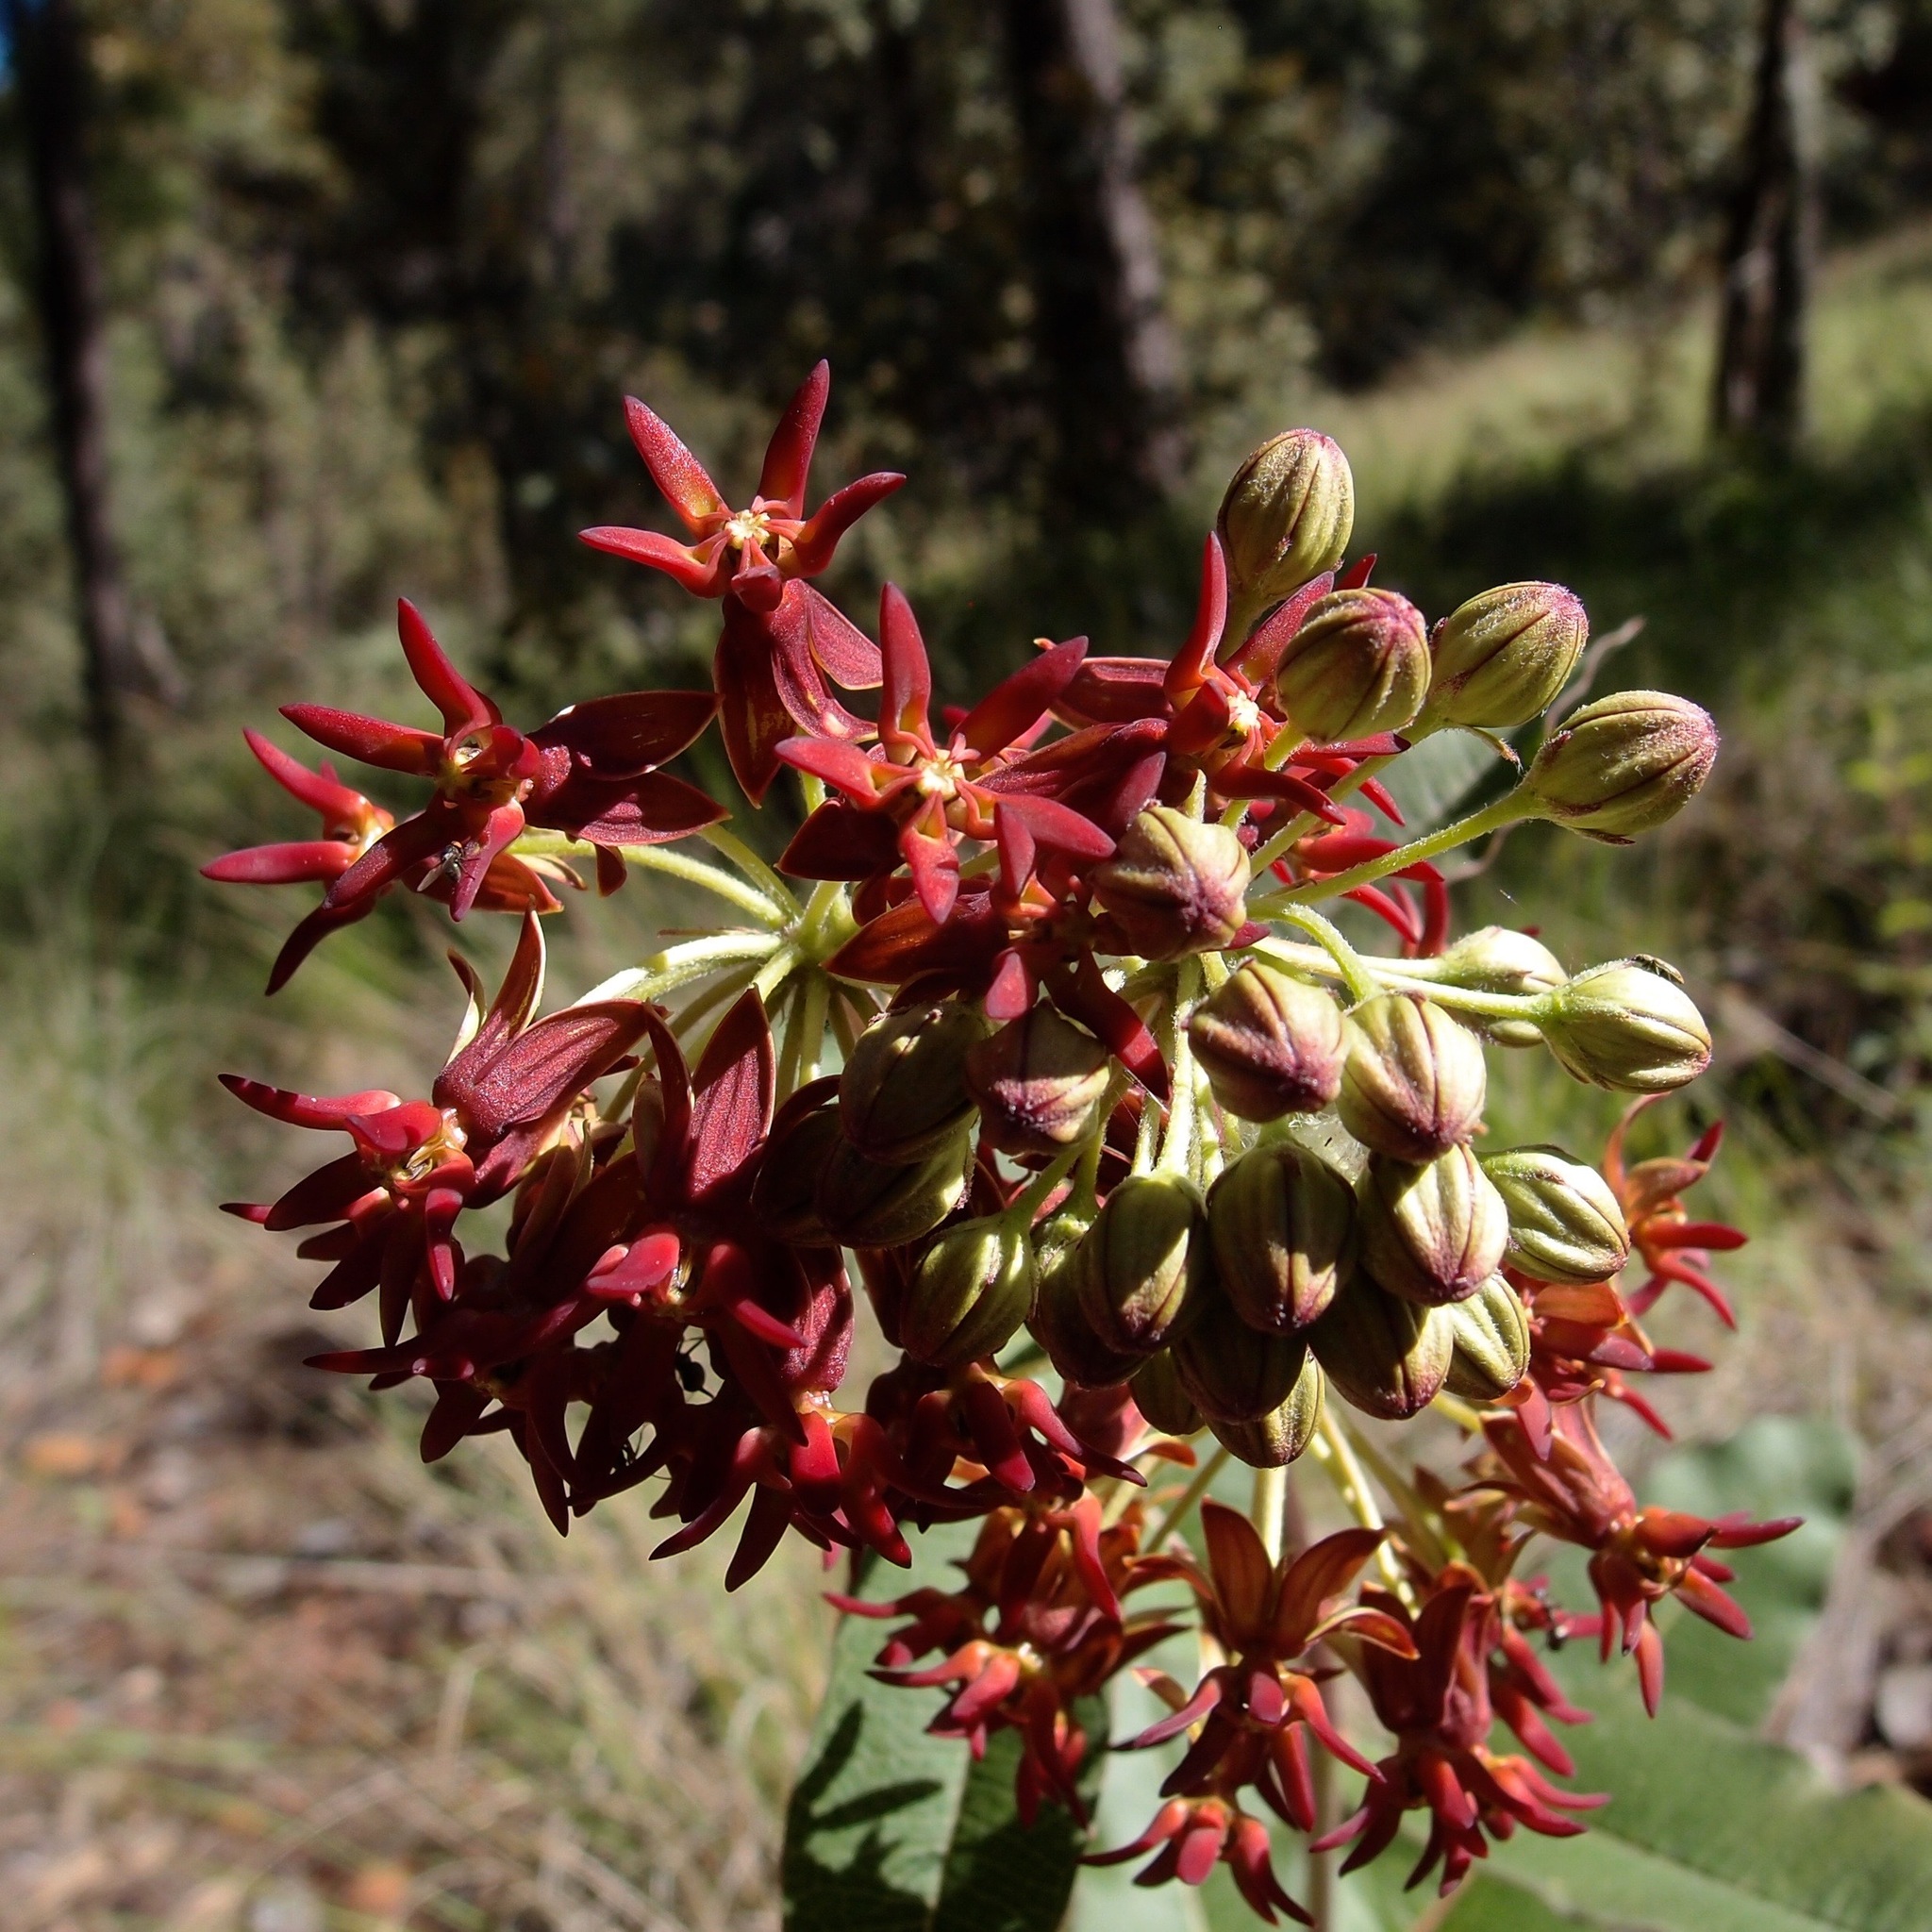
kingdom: Plantae
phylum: Tracheophyta
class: Magnoliopsida
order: Gentianales
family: Apocynaceae
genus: Asclepias
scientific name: Asclepias hypoleuca
